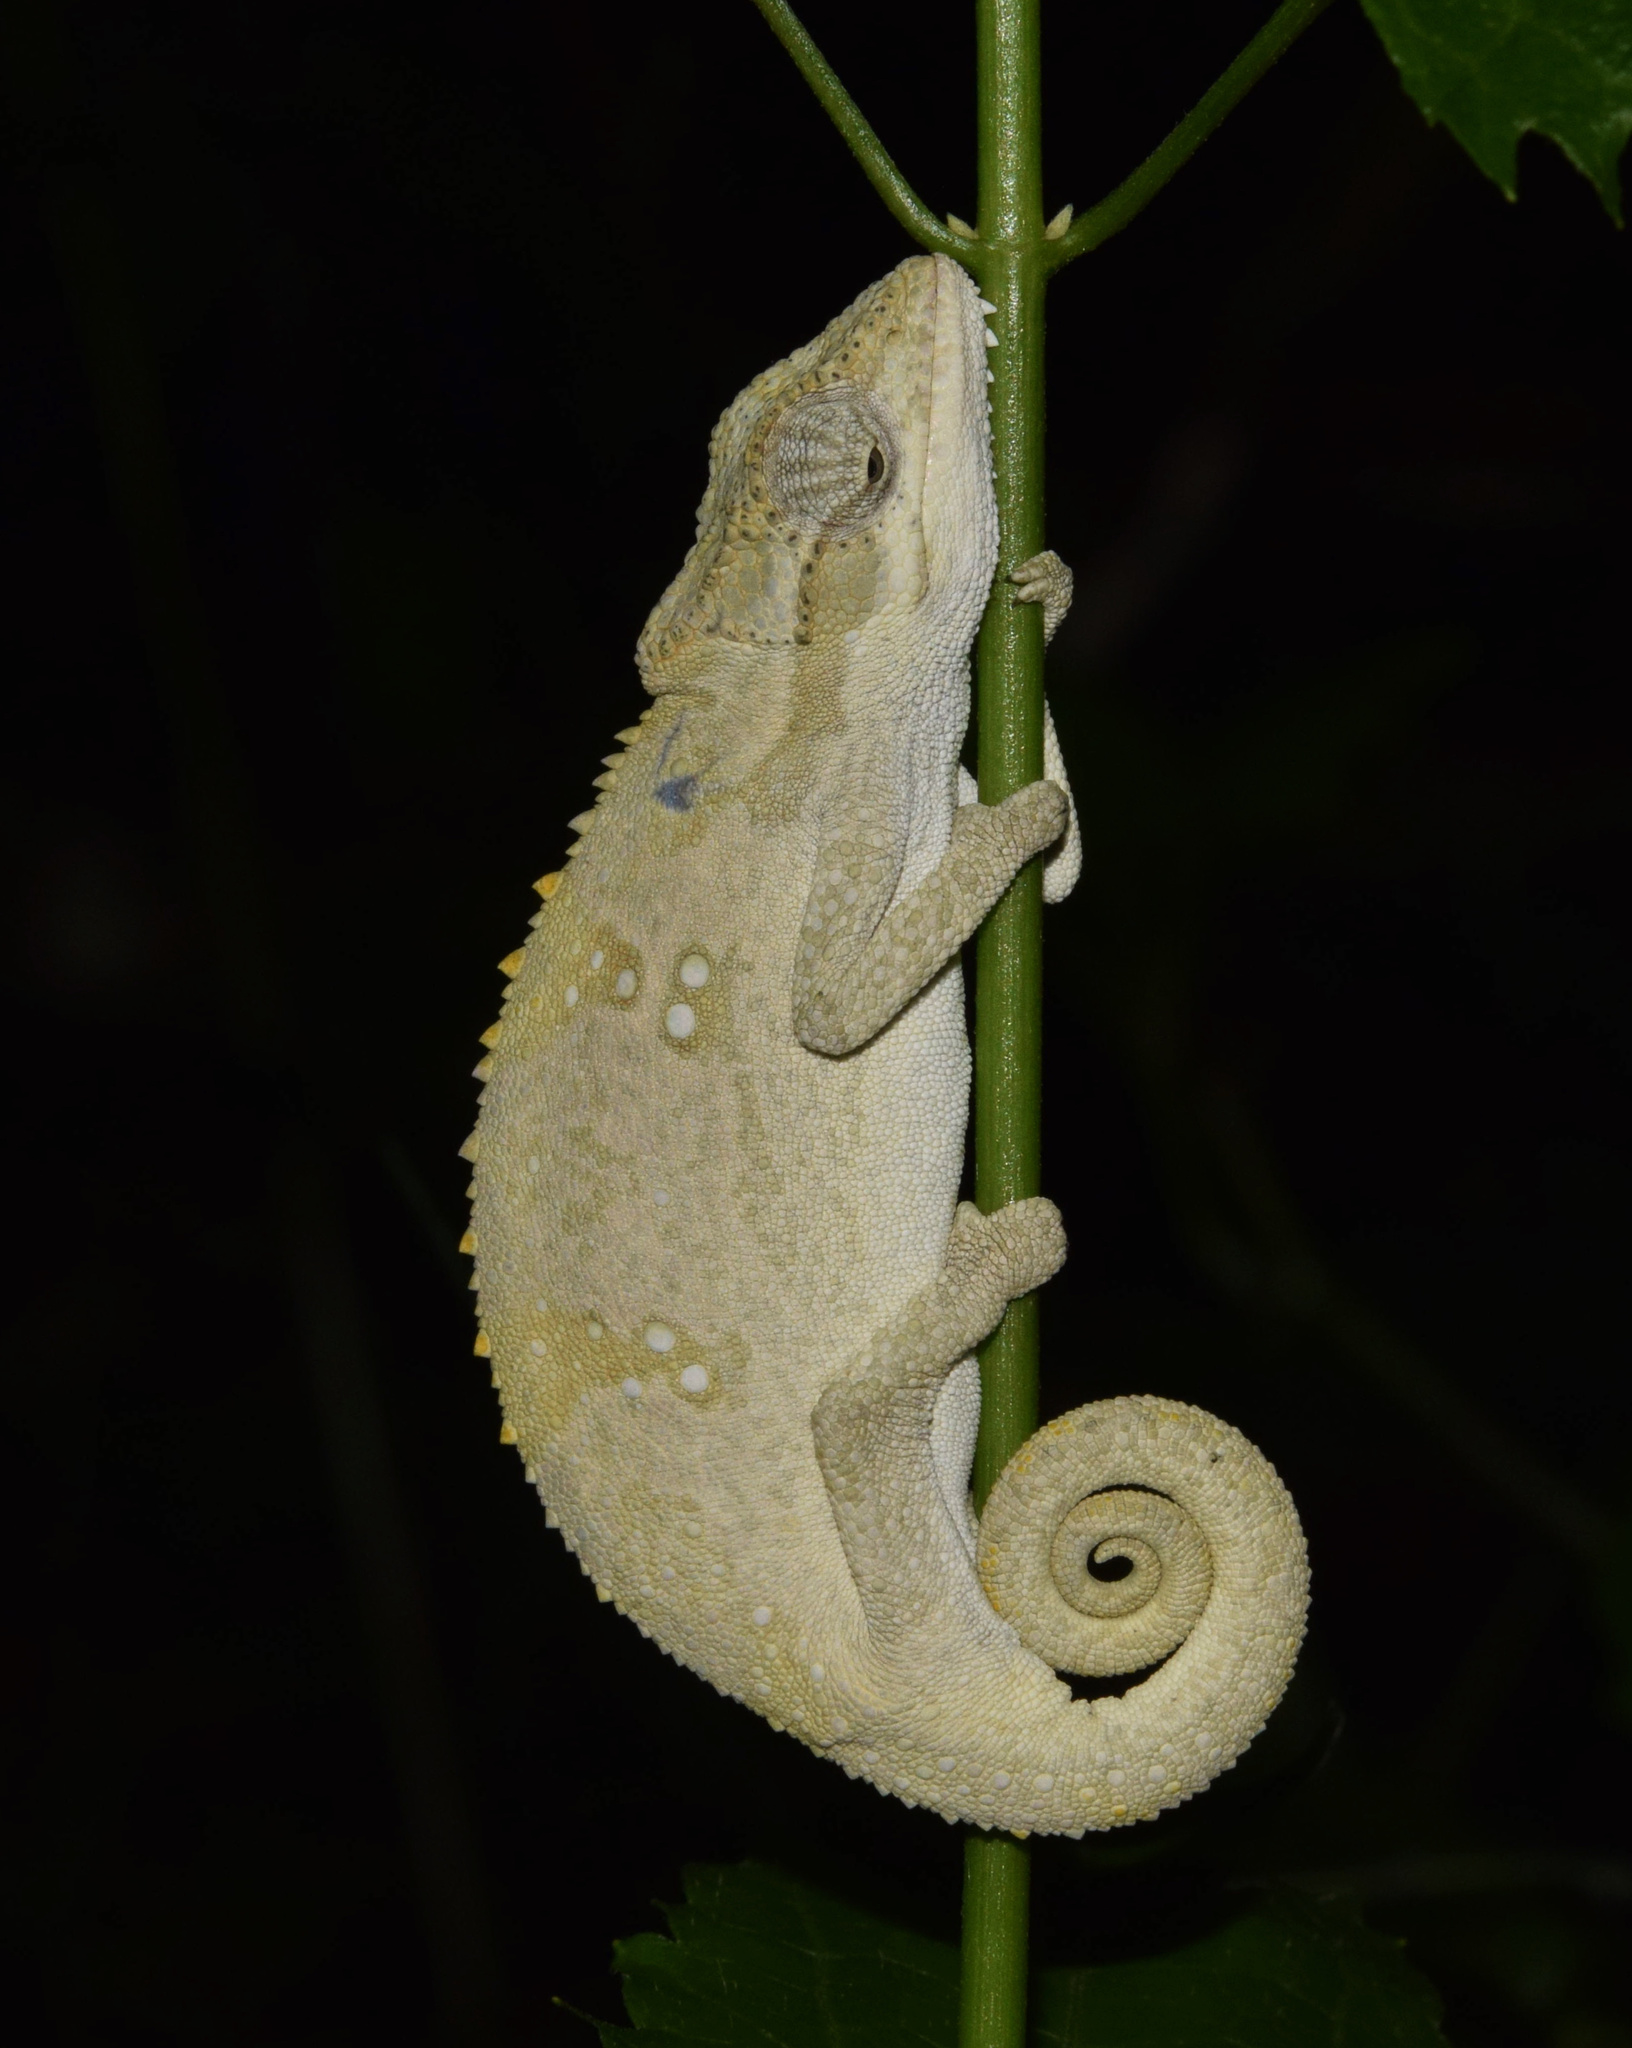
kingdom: Animalia
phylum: Chordata
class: Squamata
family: Chamaeleonidae
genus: Bradypodion
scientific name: Bradypodion melanocephalum
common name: Black-headed dwarf chameleon
